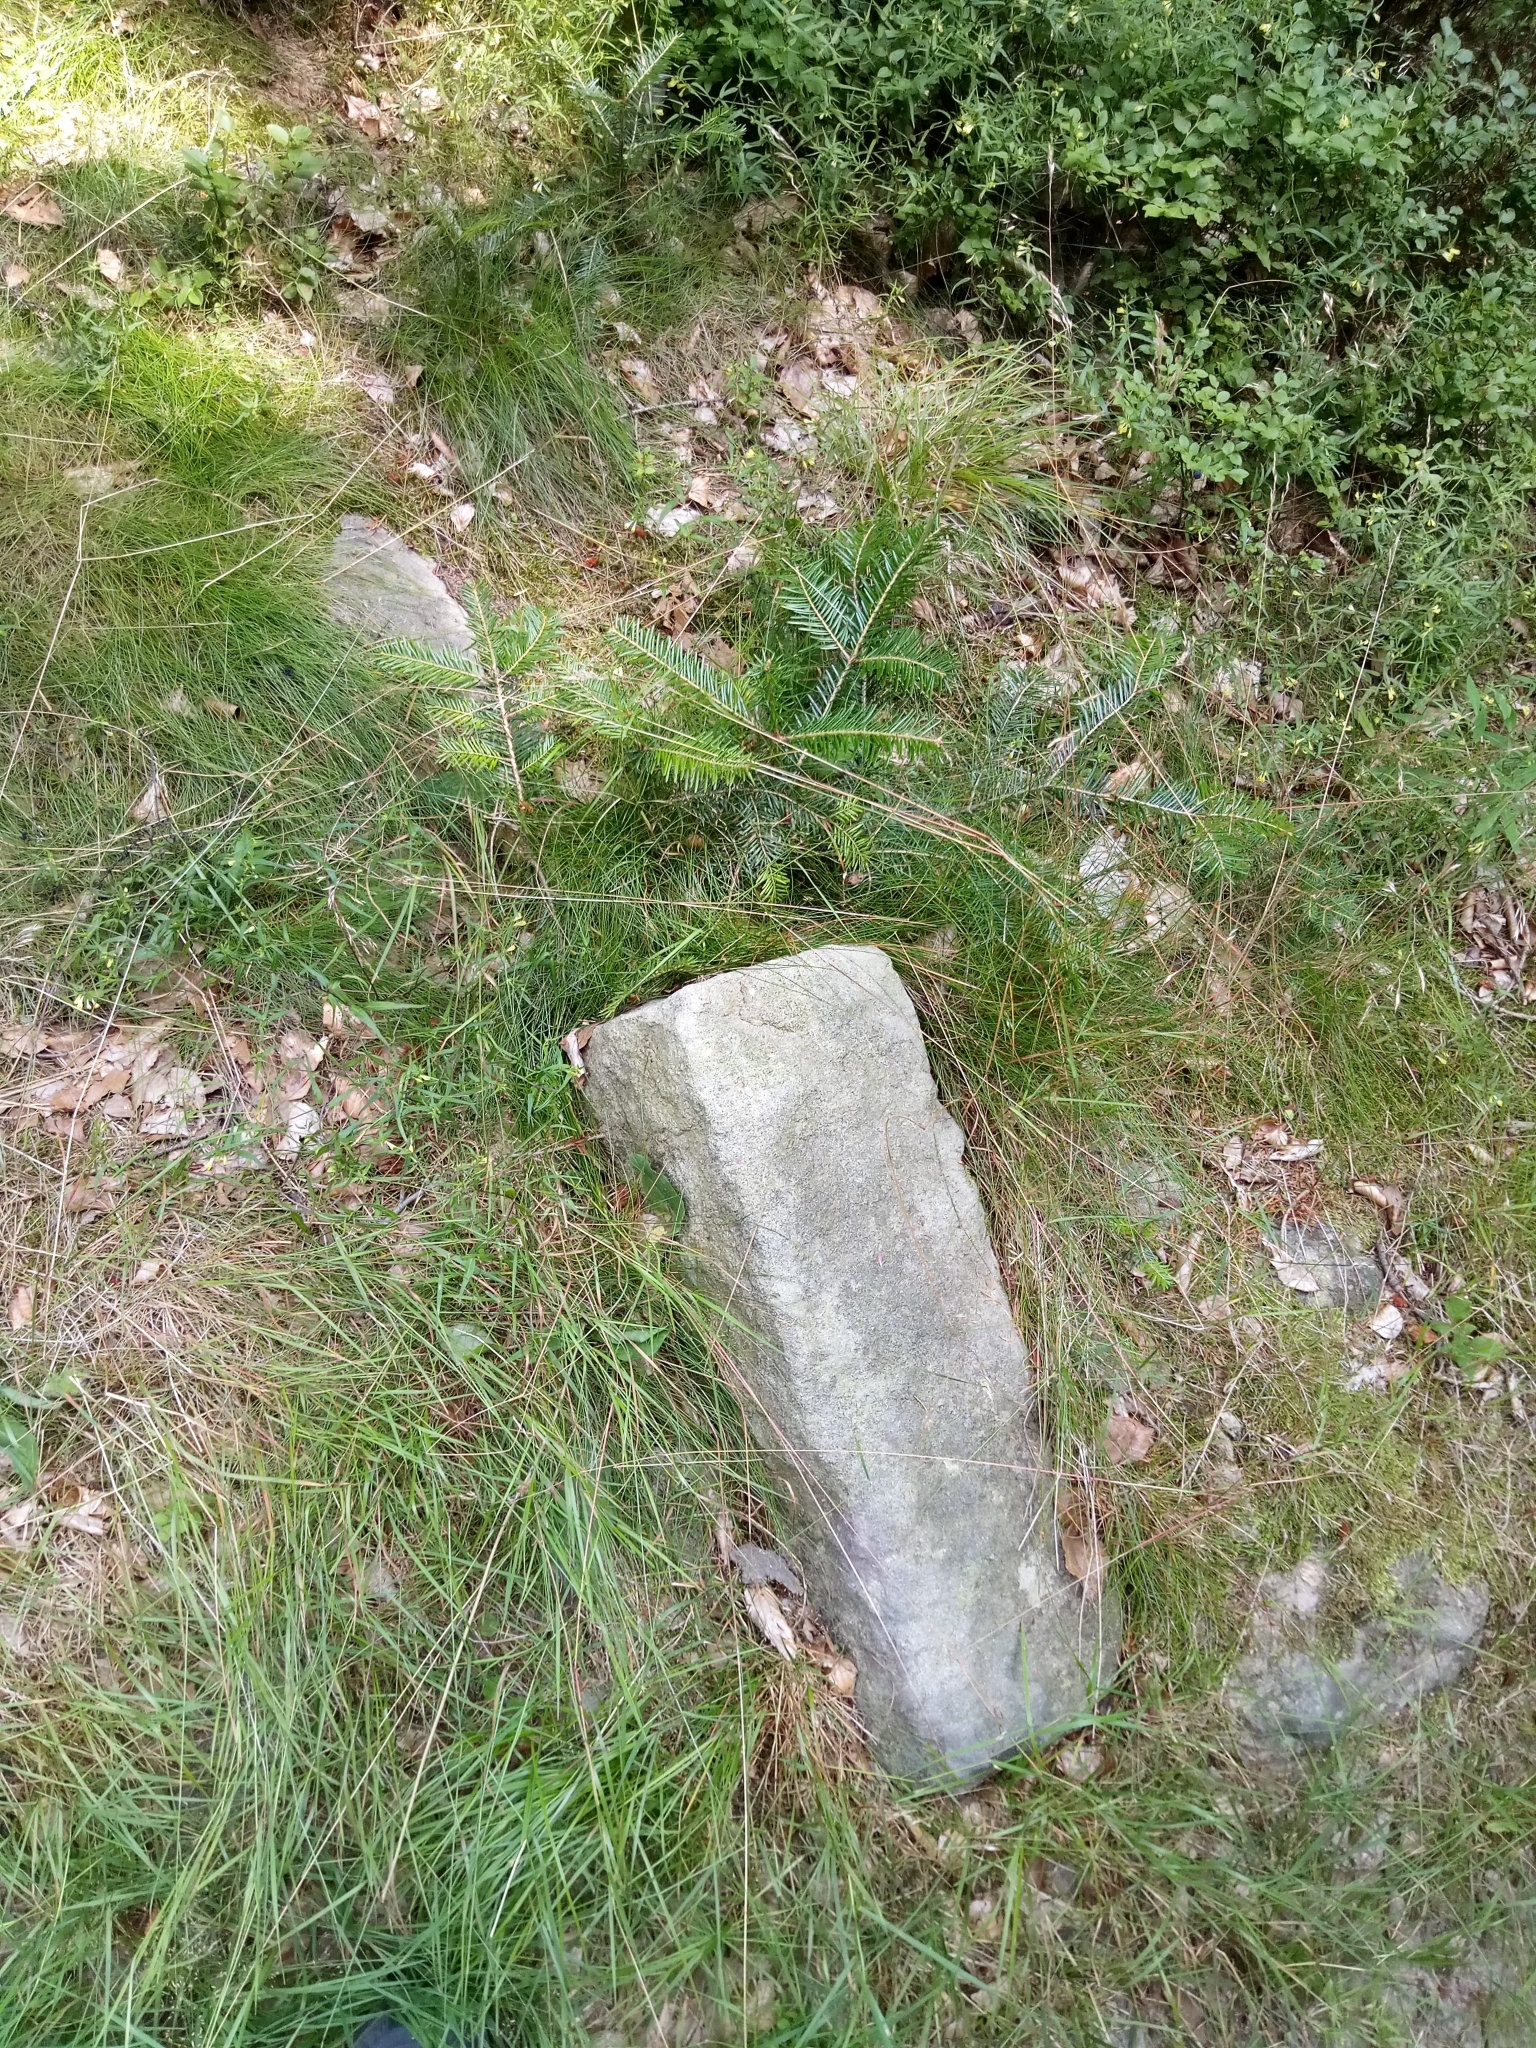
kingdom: Plantae
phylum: Tracheophyta
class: Pinopsida
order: Pinales
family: Pinaceae
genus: Abies
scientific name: Abies alba
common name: Silver fir
